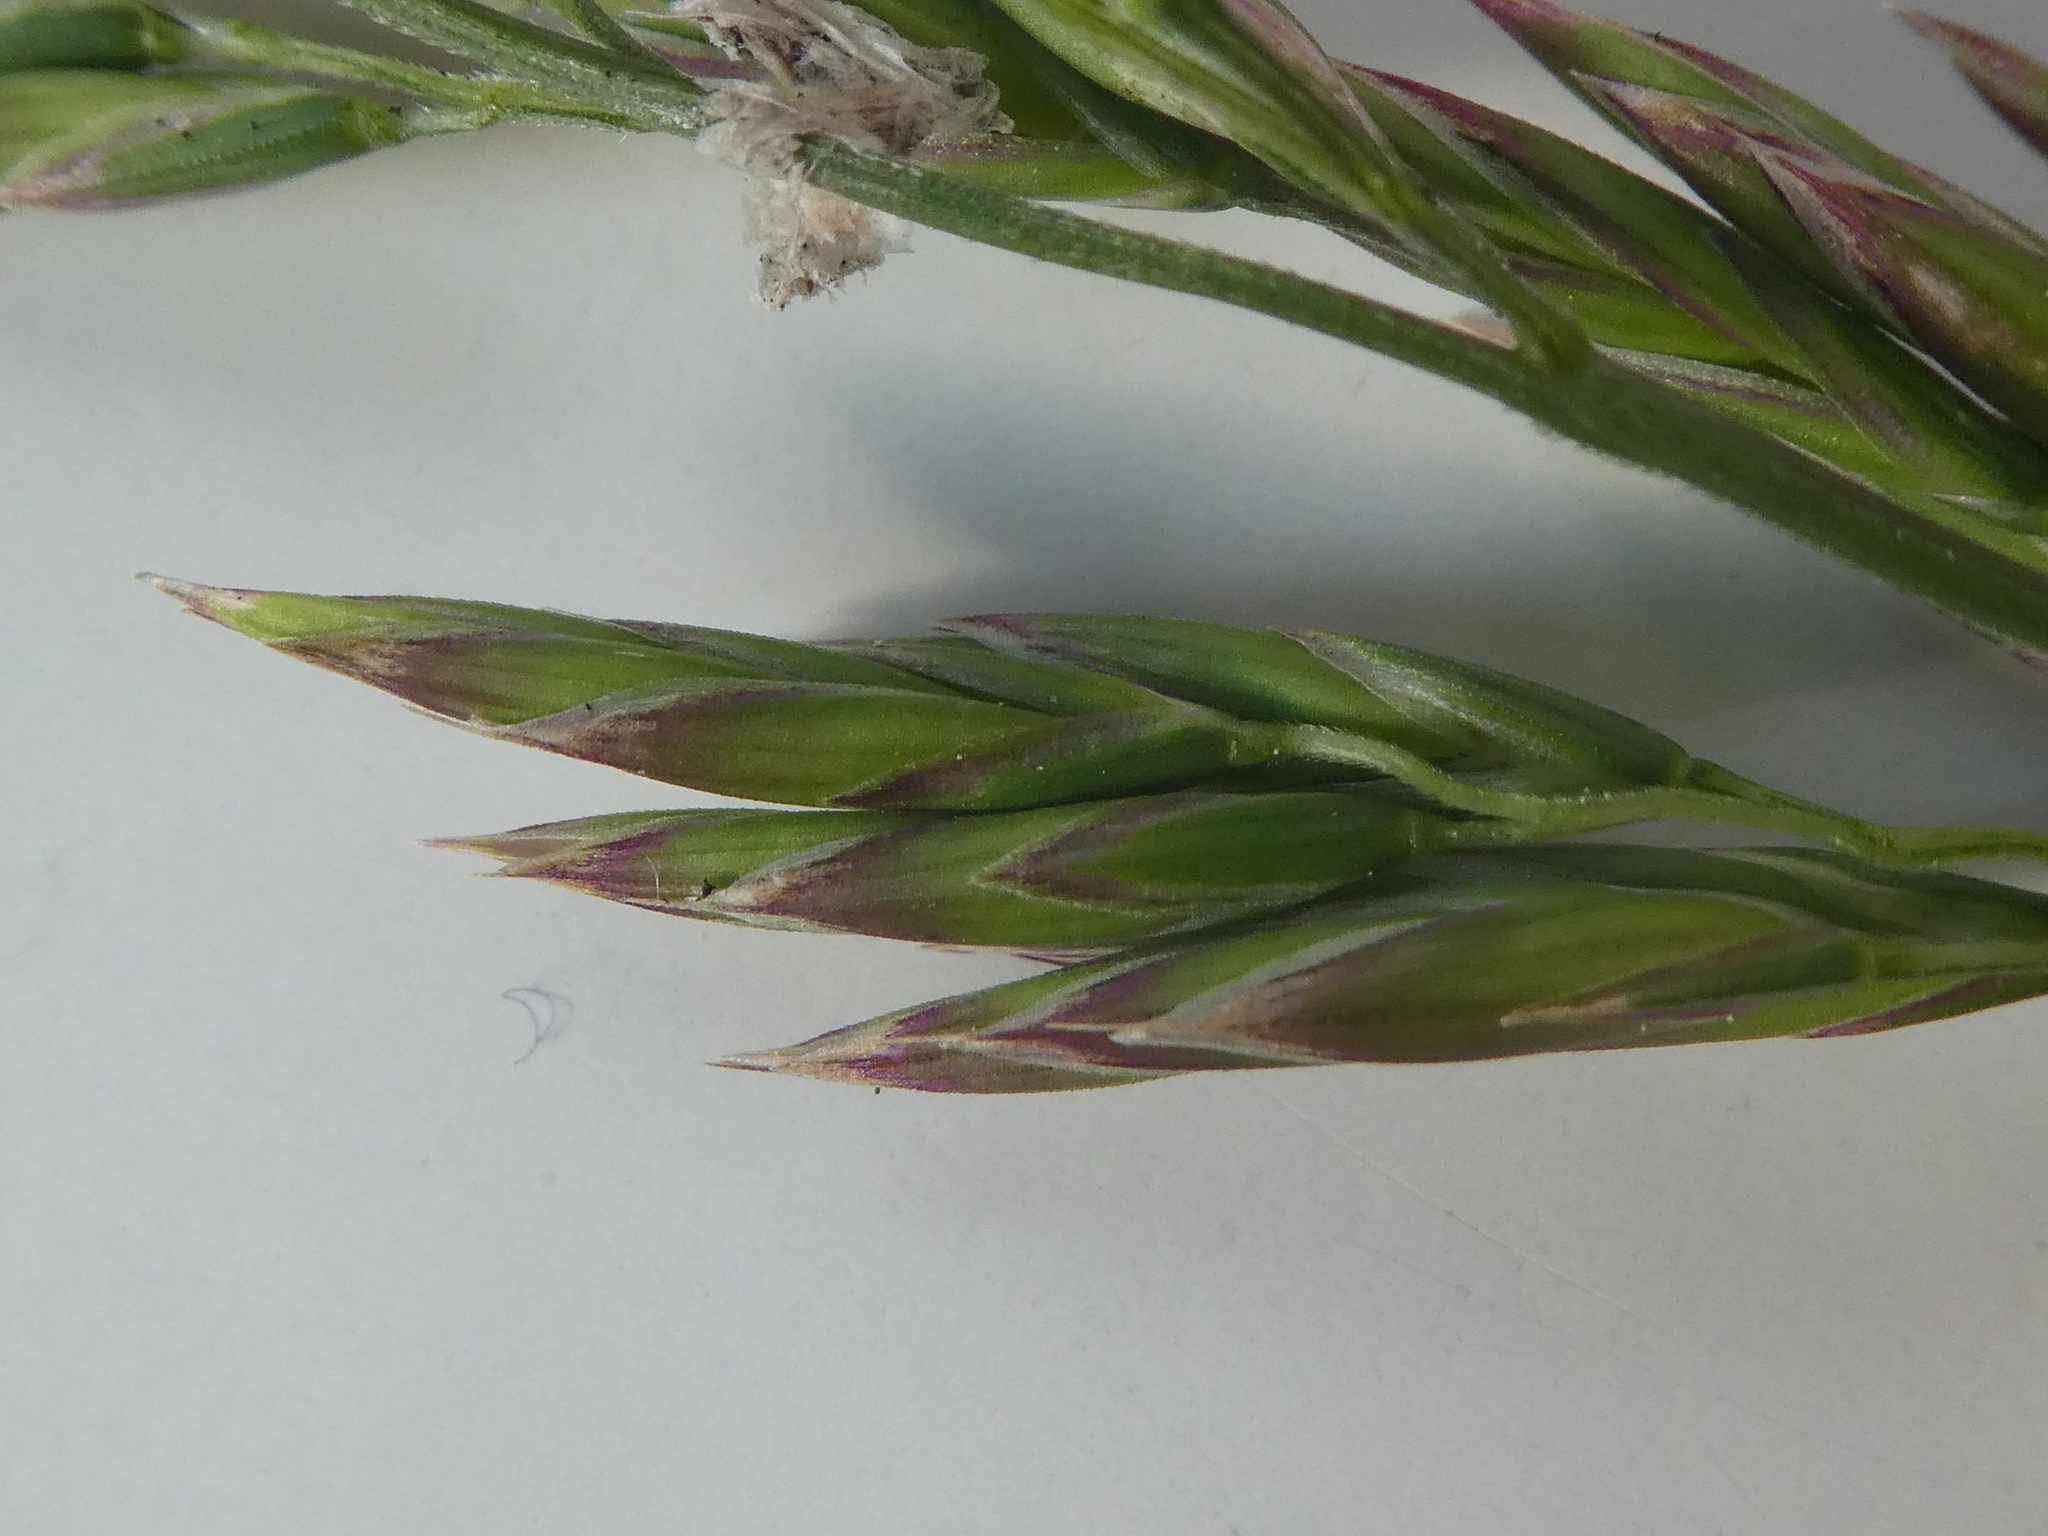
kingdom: Plantae
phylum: Tracheophyta
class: Liliopsida
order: Poales
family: Poaceae
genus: Lolium
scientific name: Lolium arundinaceum
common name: Reed fescue
